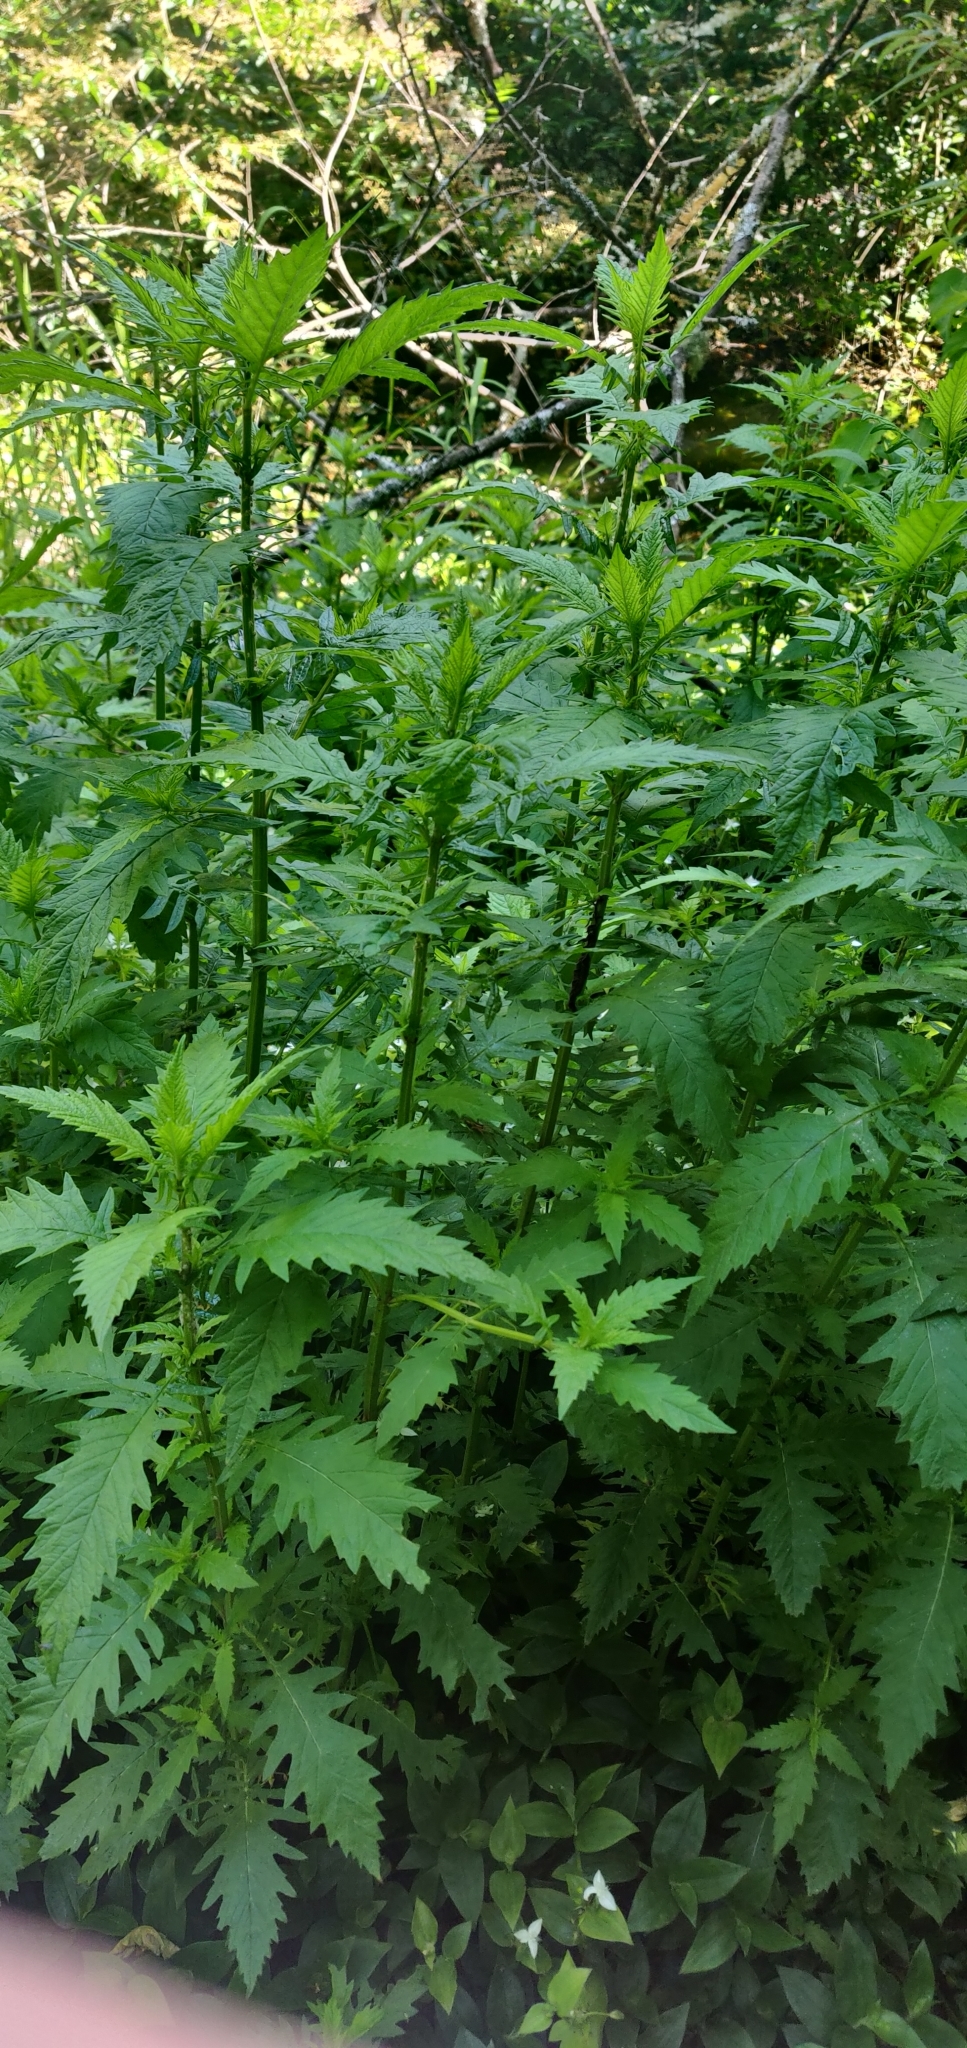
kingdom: Plantae
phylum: Tracheophyta
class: Magnoliopsida
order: Lamiales
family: Lamiaceae
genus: Lycopus
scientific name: Lycopus europaeus
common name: European bugleweed
